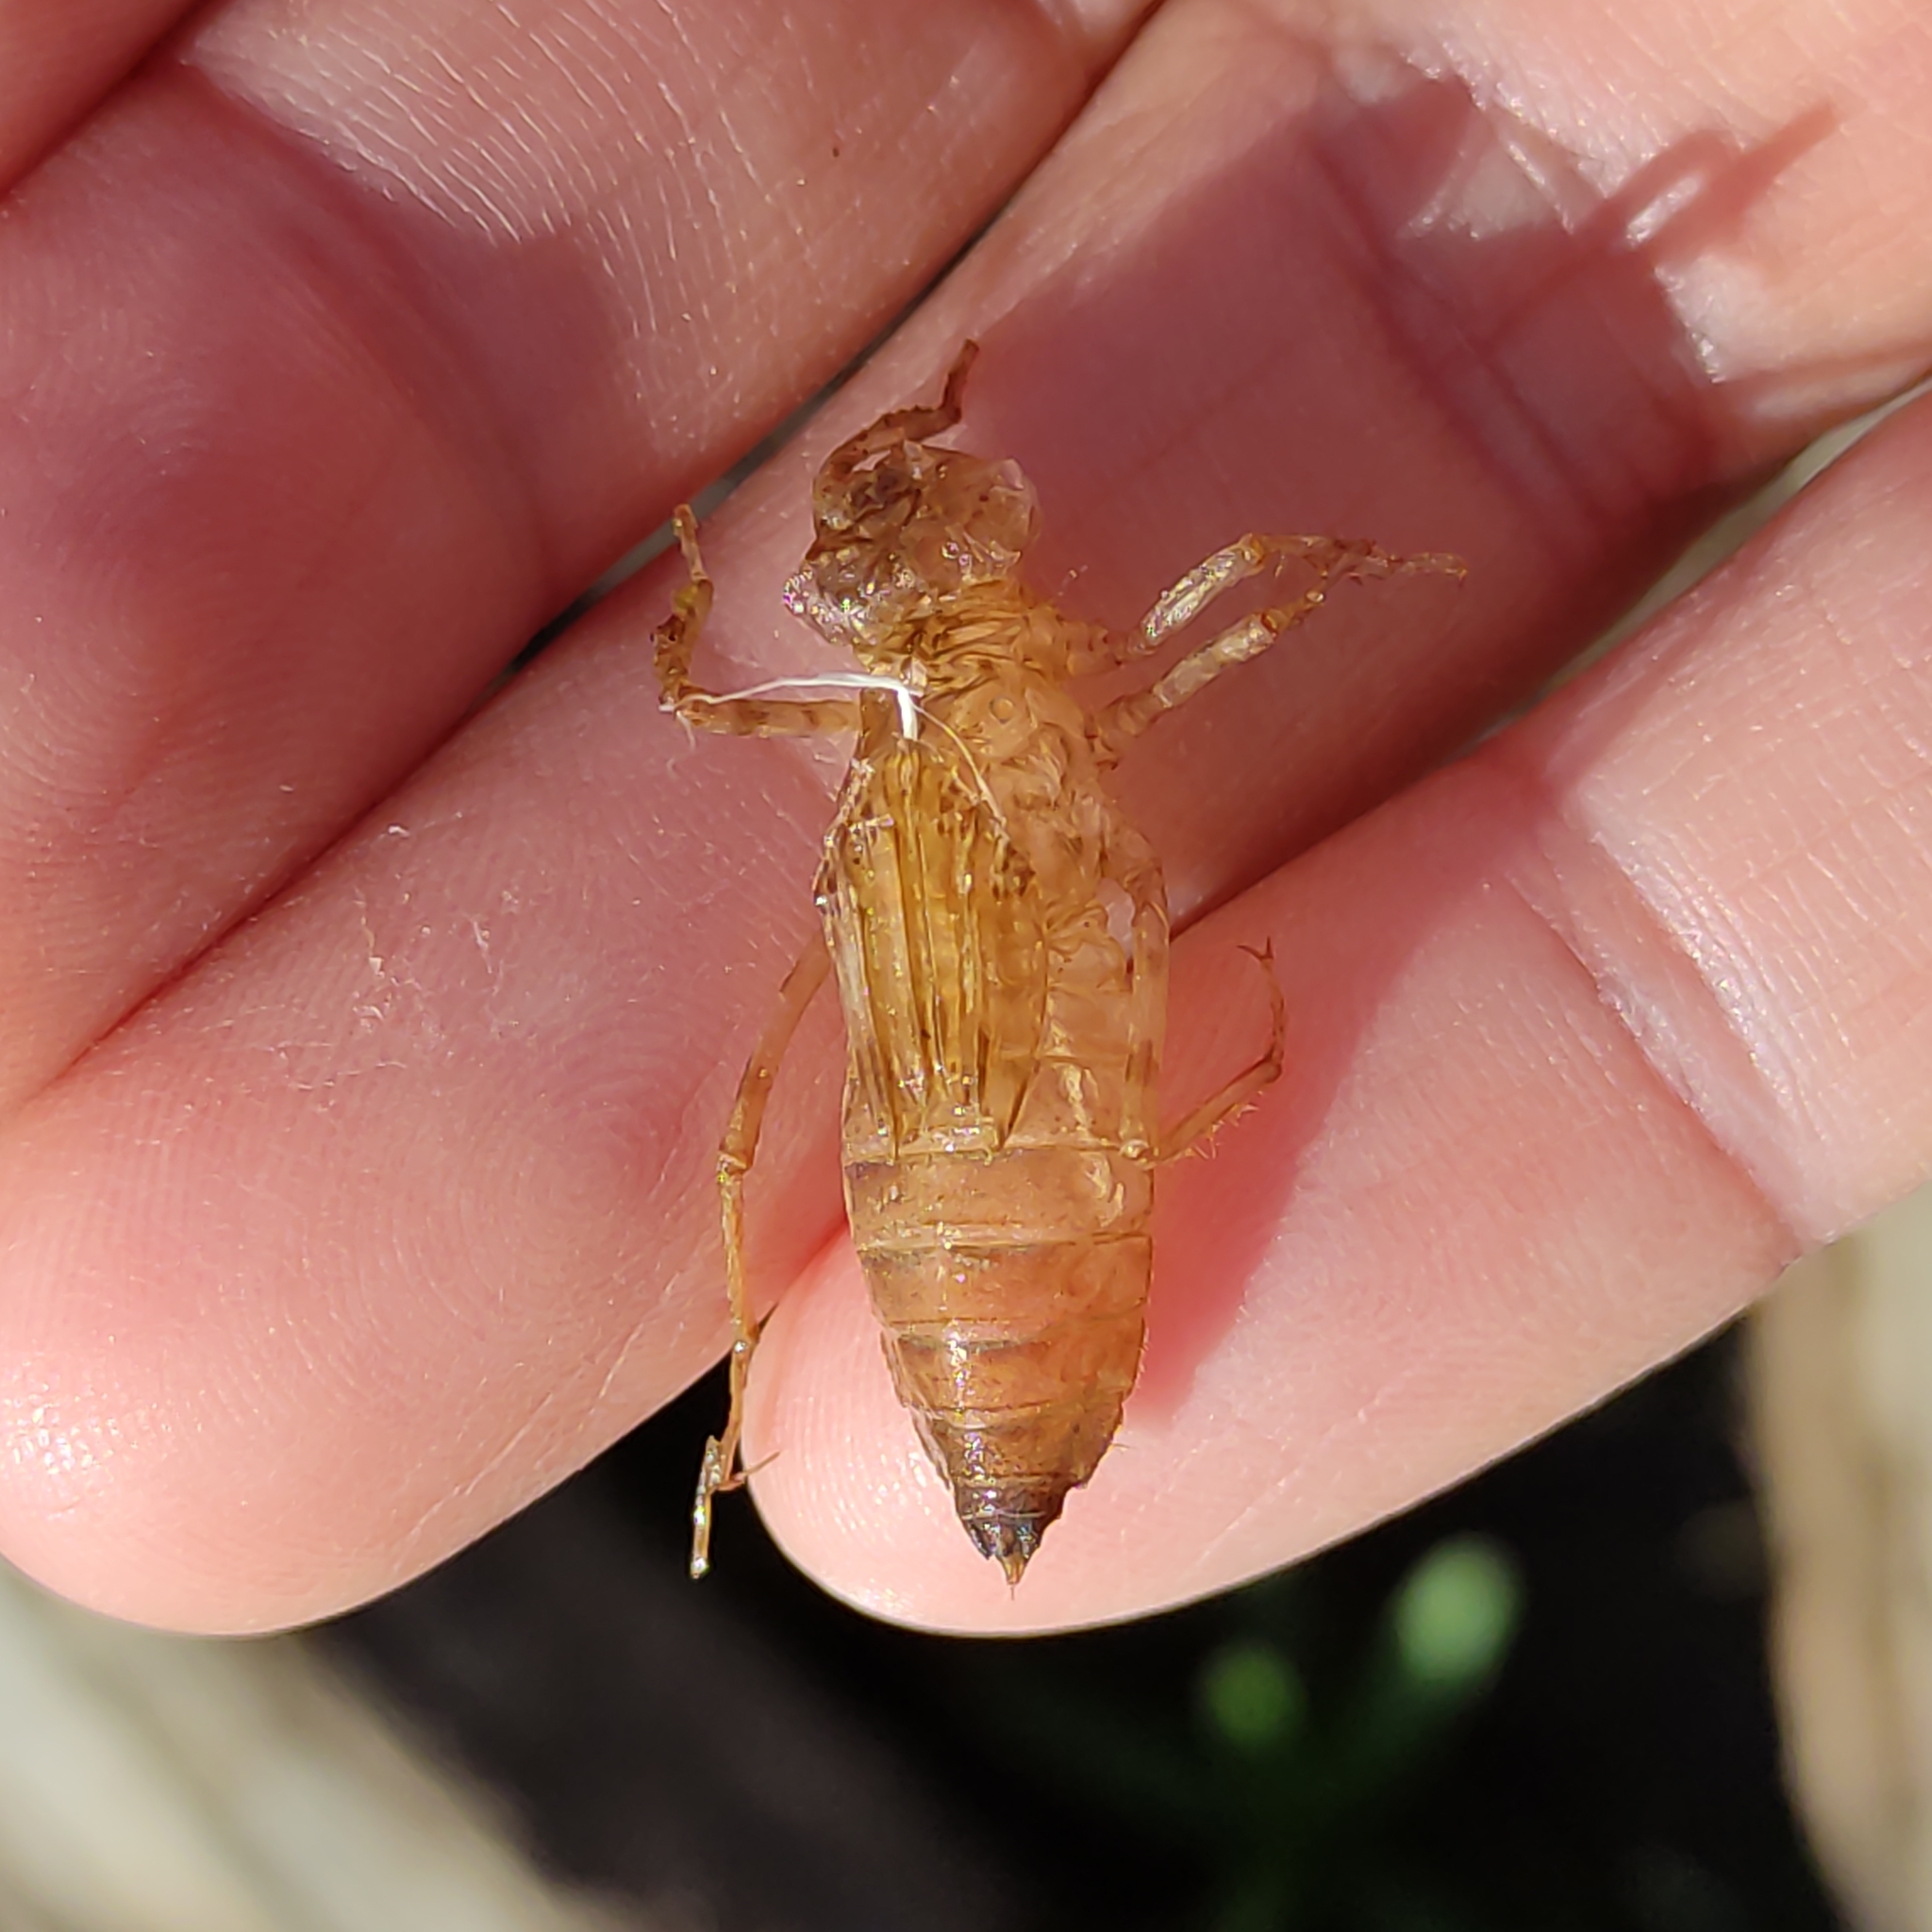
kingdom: Animalia
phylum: Arthropoda
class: Insecta
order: Odonata
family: Corduliidae
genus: Procordulia
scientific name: Procordulia grayi
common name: Yellow spotted dragonfly
